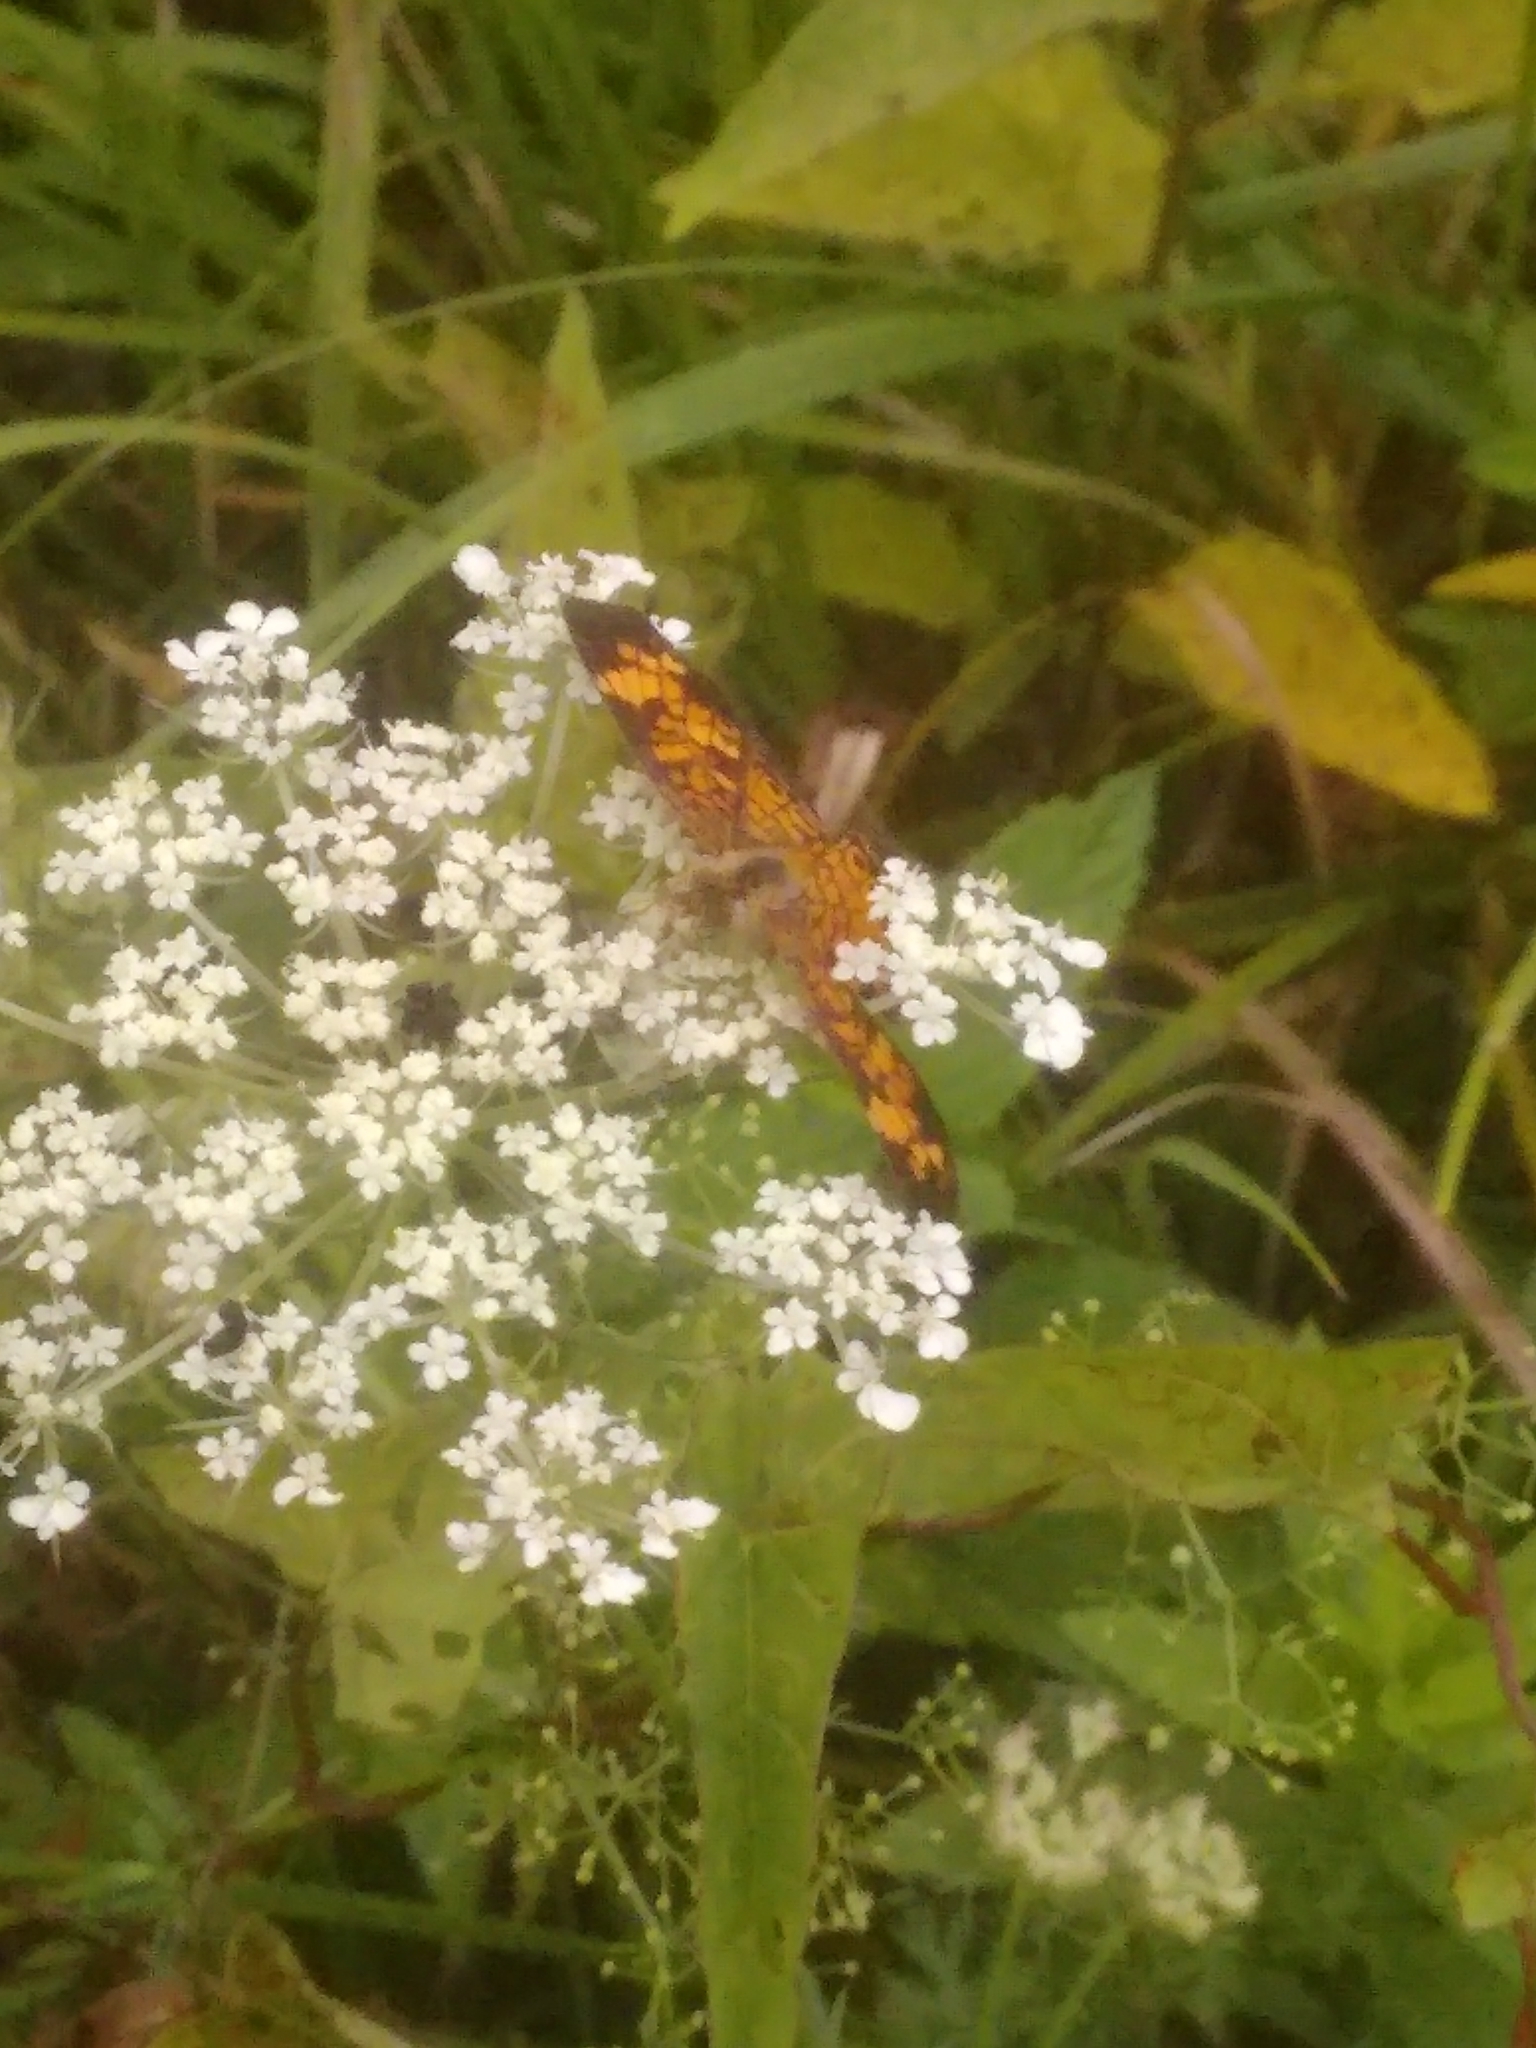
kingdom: Animalia
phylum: Arthropoda
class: Insecta
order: Lepidoptera
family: Nymphalidae
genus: Phyciodes
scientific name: Phyciodes tharos
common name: Pearl crescent
